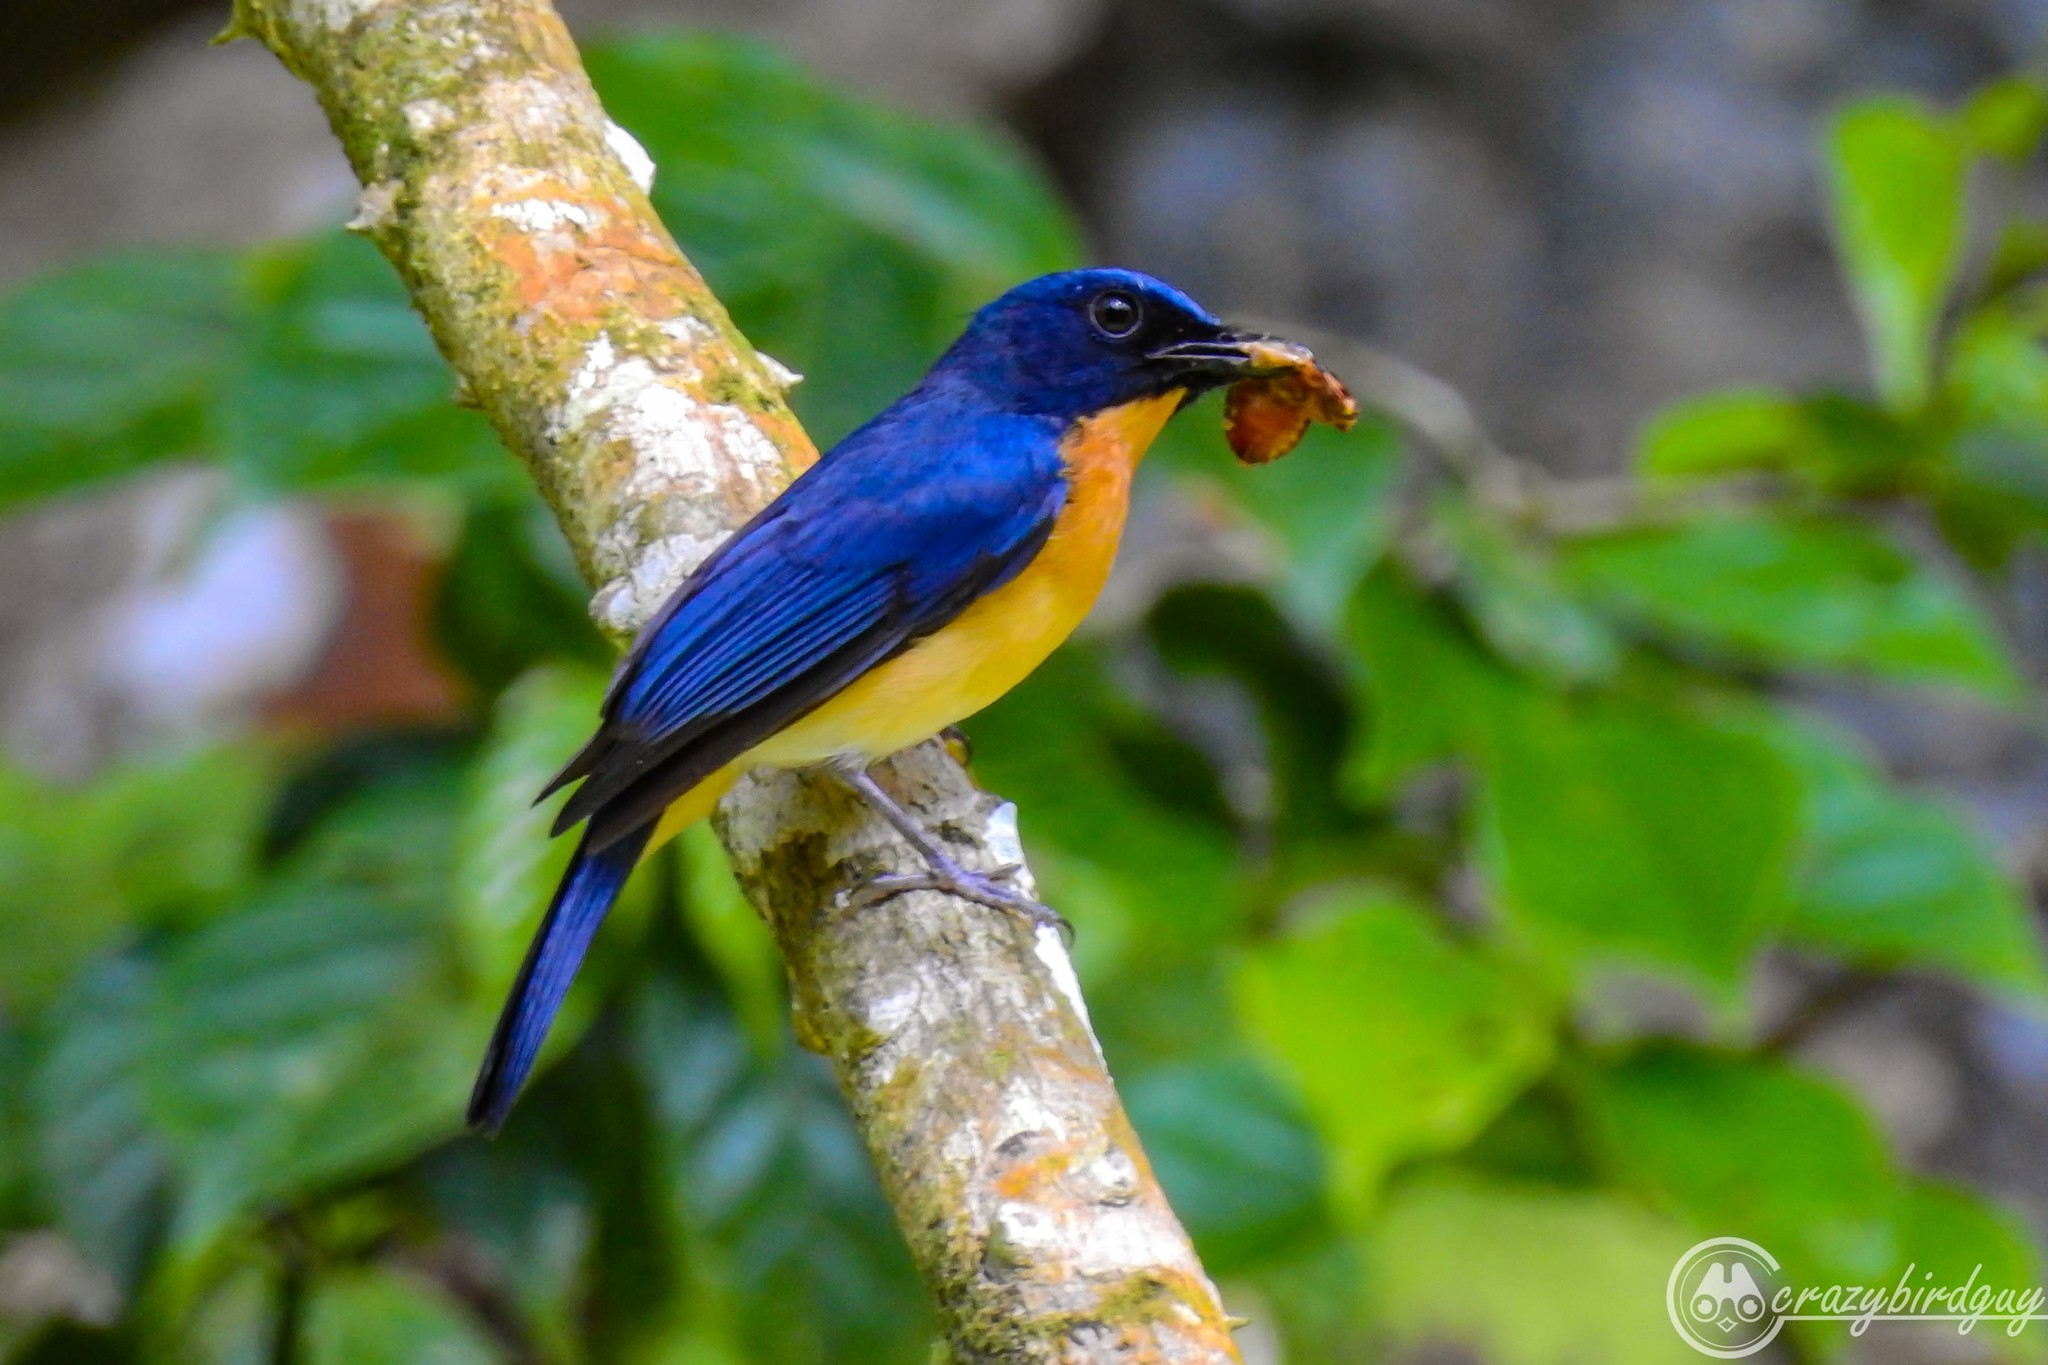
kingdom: Animalia
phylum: Chordata
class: Aves
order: Passeriformes
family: Muscicapidae
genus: Cyornis
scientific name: Cyornis rufigastra
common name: Mangrove blue flycatcher
